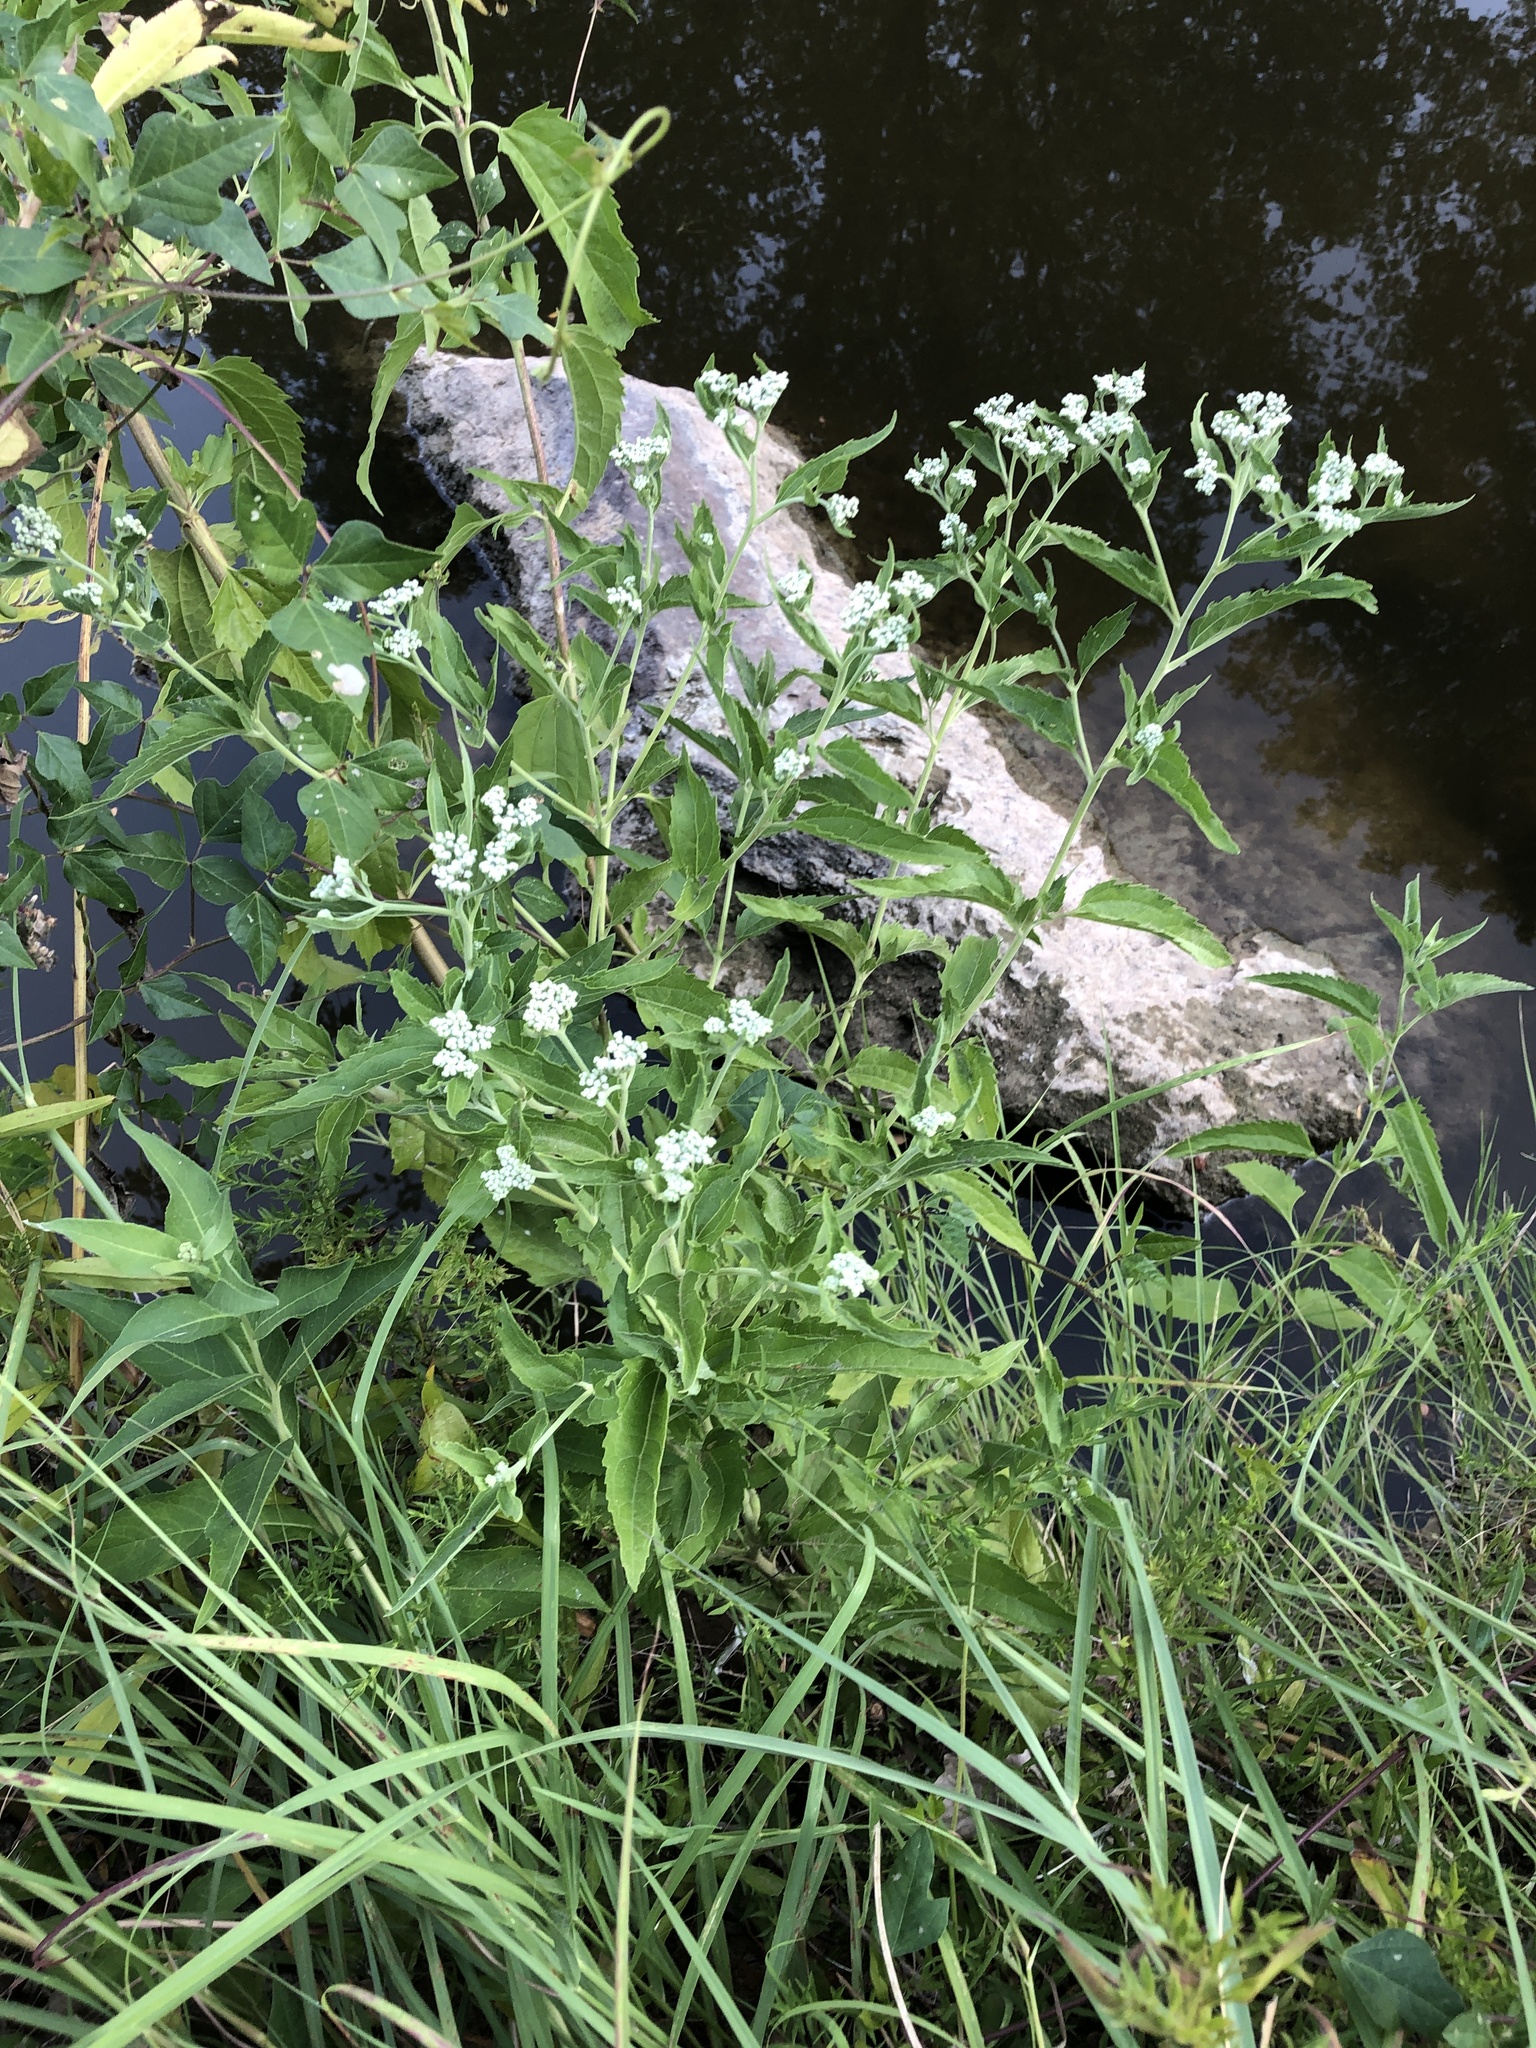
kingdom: Plantae
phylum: Tracheophyta
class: Magnoliopsida
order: Asterales
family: Asteraceae
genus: Eupatorium
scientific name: Eupatorium serotinum
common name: Late boneset
